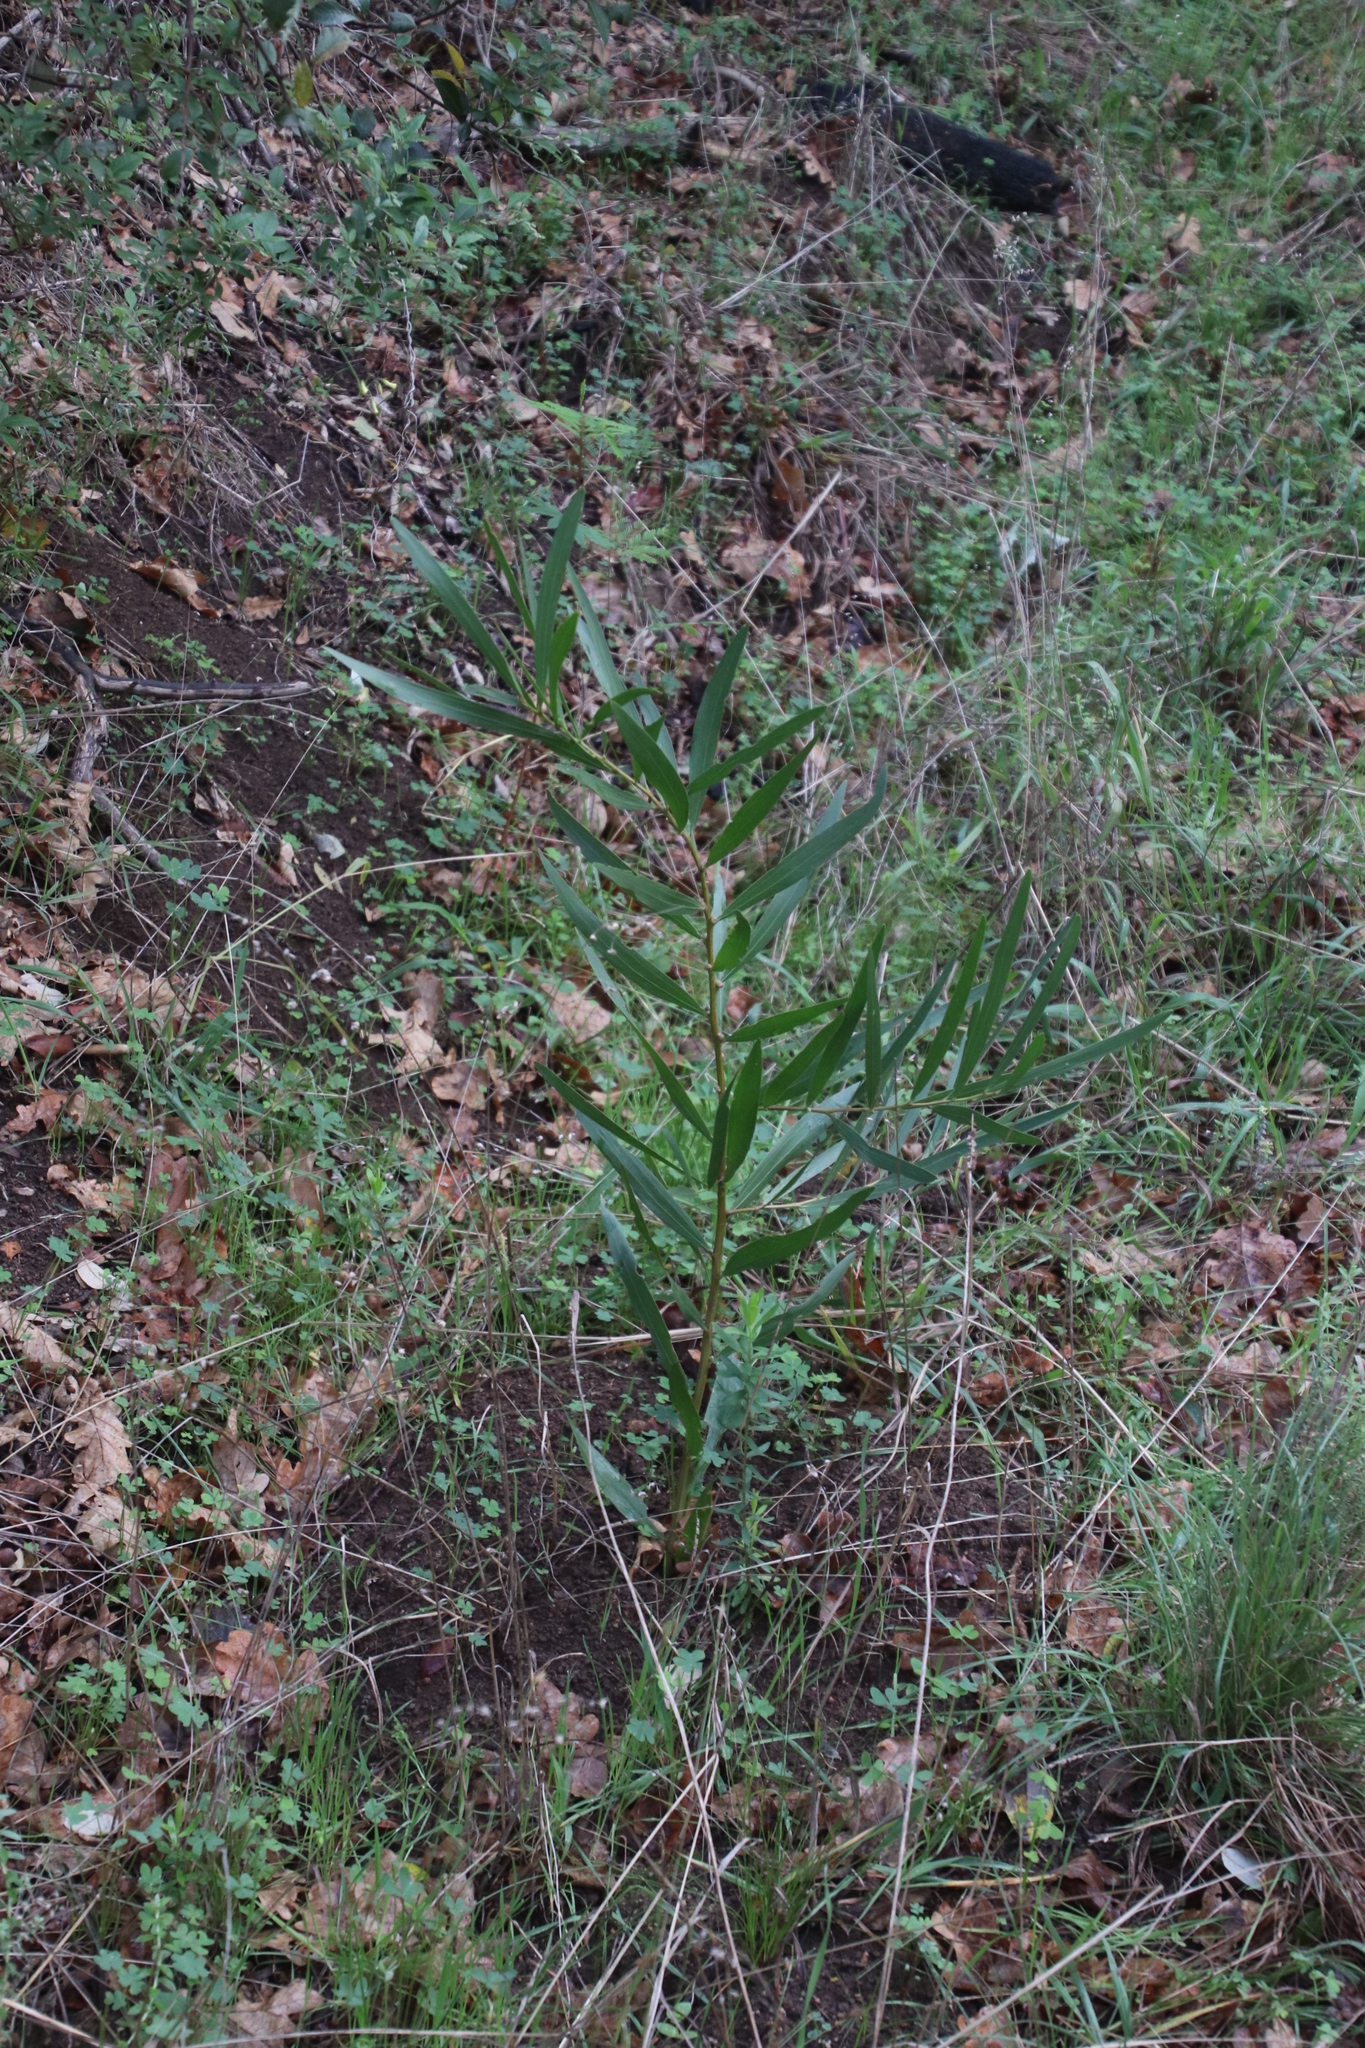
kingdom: Plantae
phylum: Tracheophyta
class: Magnoliopsida
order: Fabales
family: Fabaceae
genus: Acacia
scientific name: Acacia longifolia
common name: Sydney golden wattle
